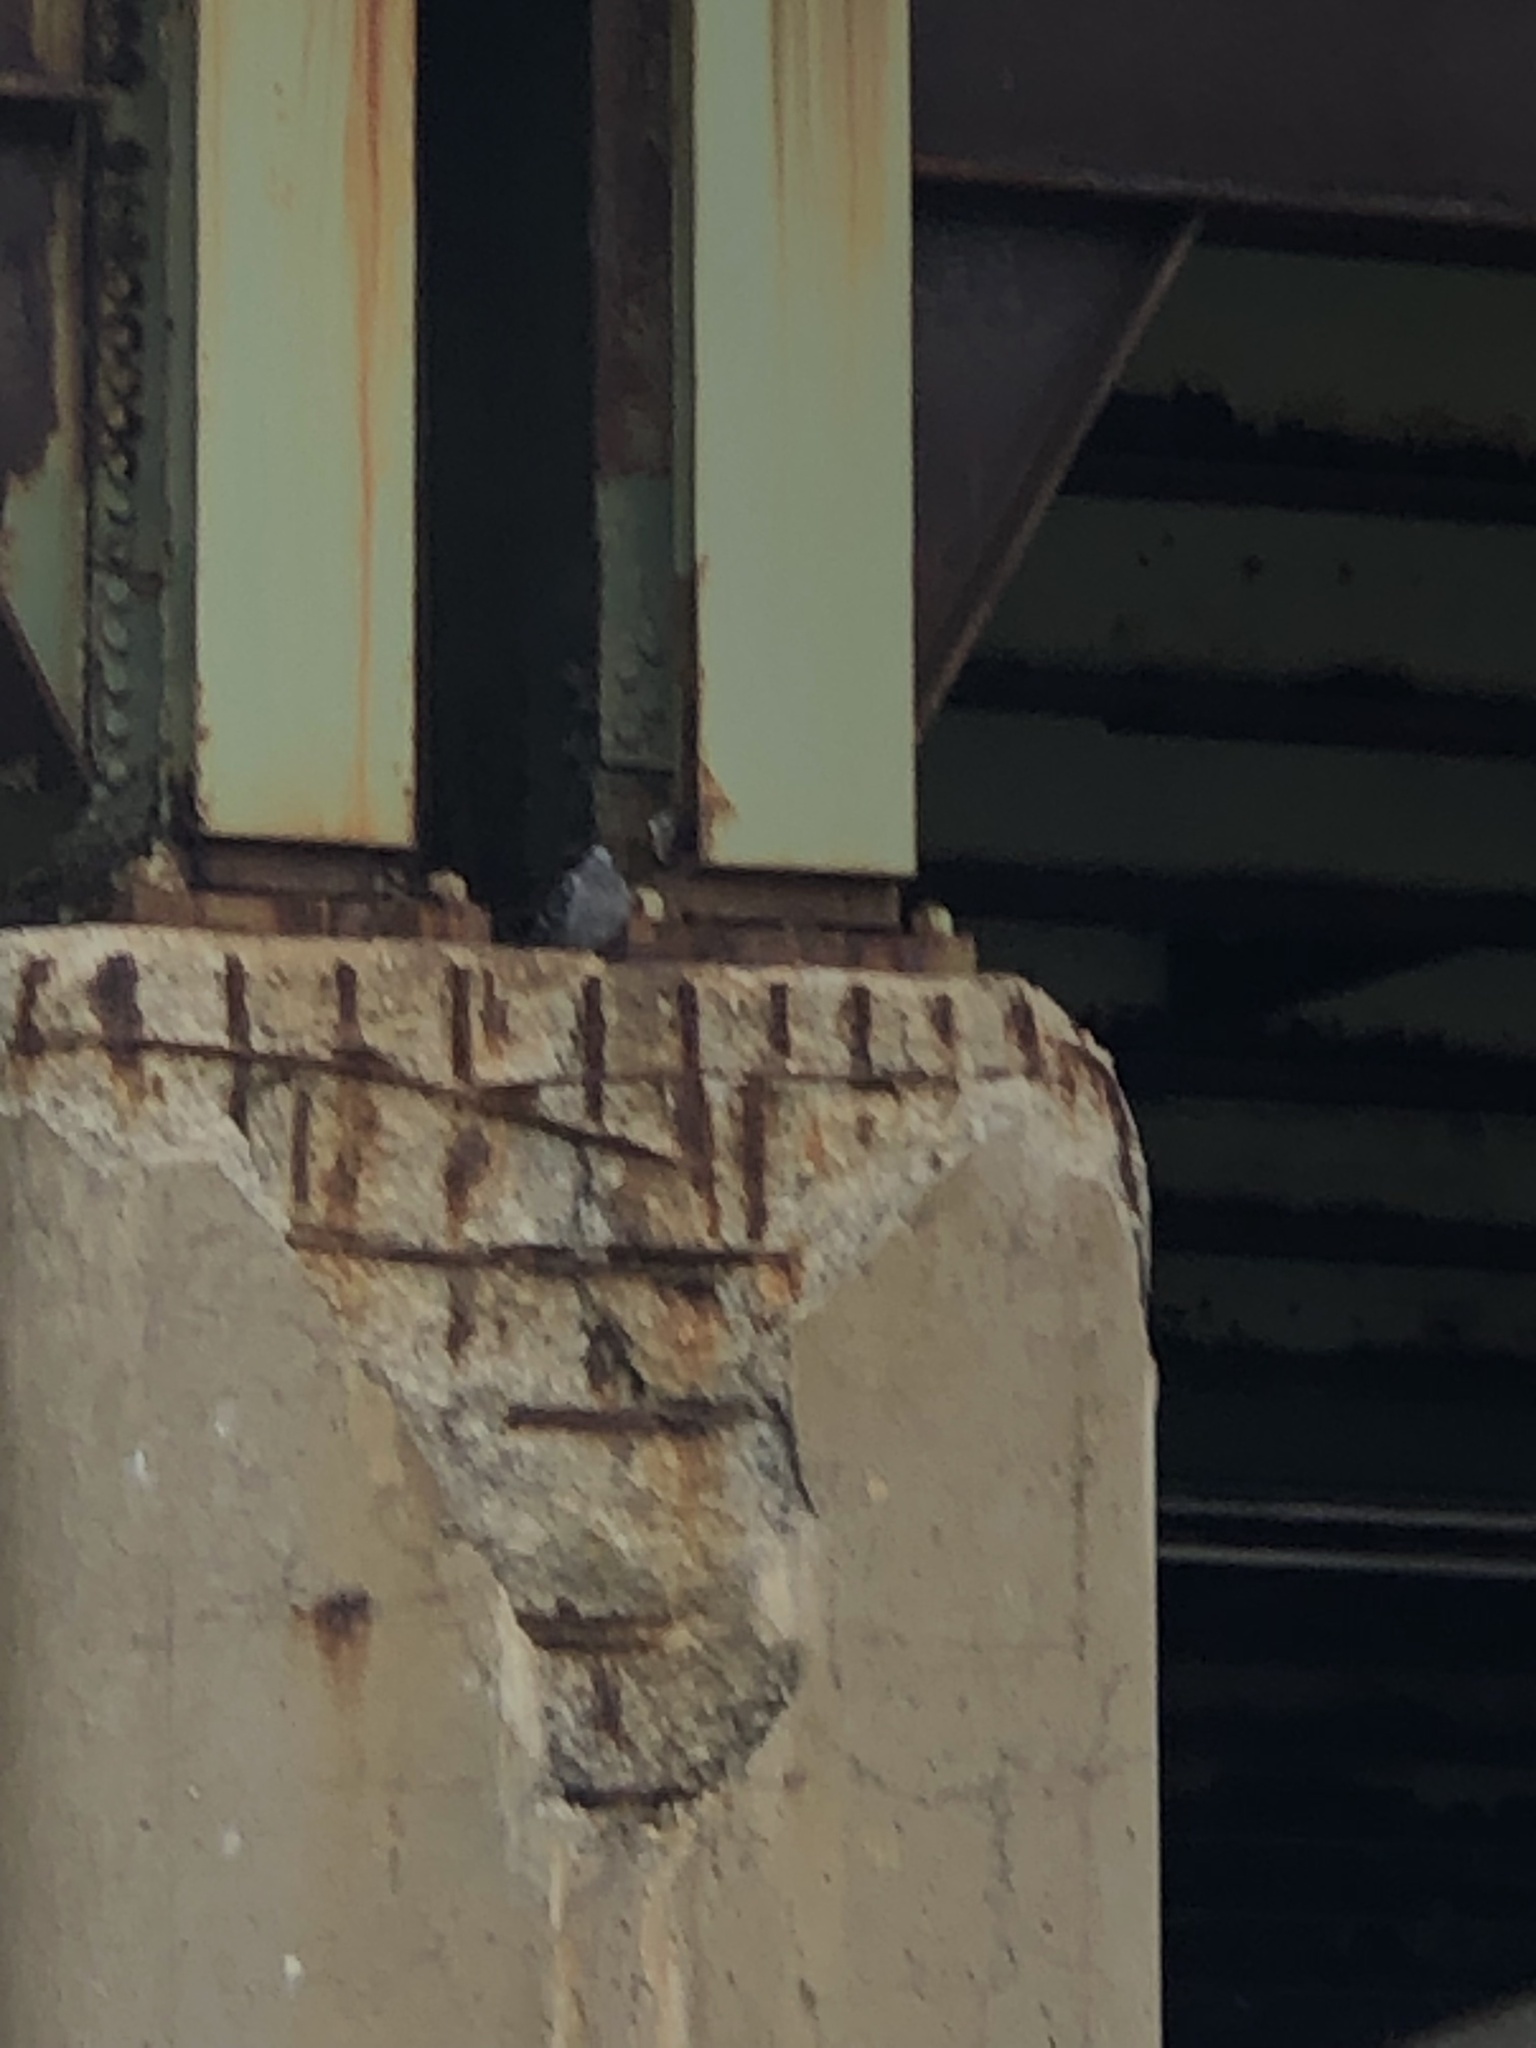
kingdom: Animalia
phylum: Chordata
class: Aves
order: Columbiformes
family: Columbidae
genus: Columba
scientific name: Columba livia
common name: Rock pigeon
